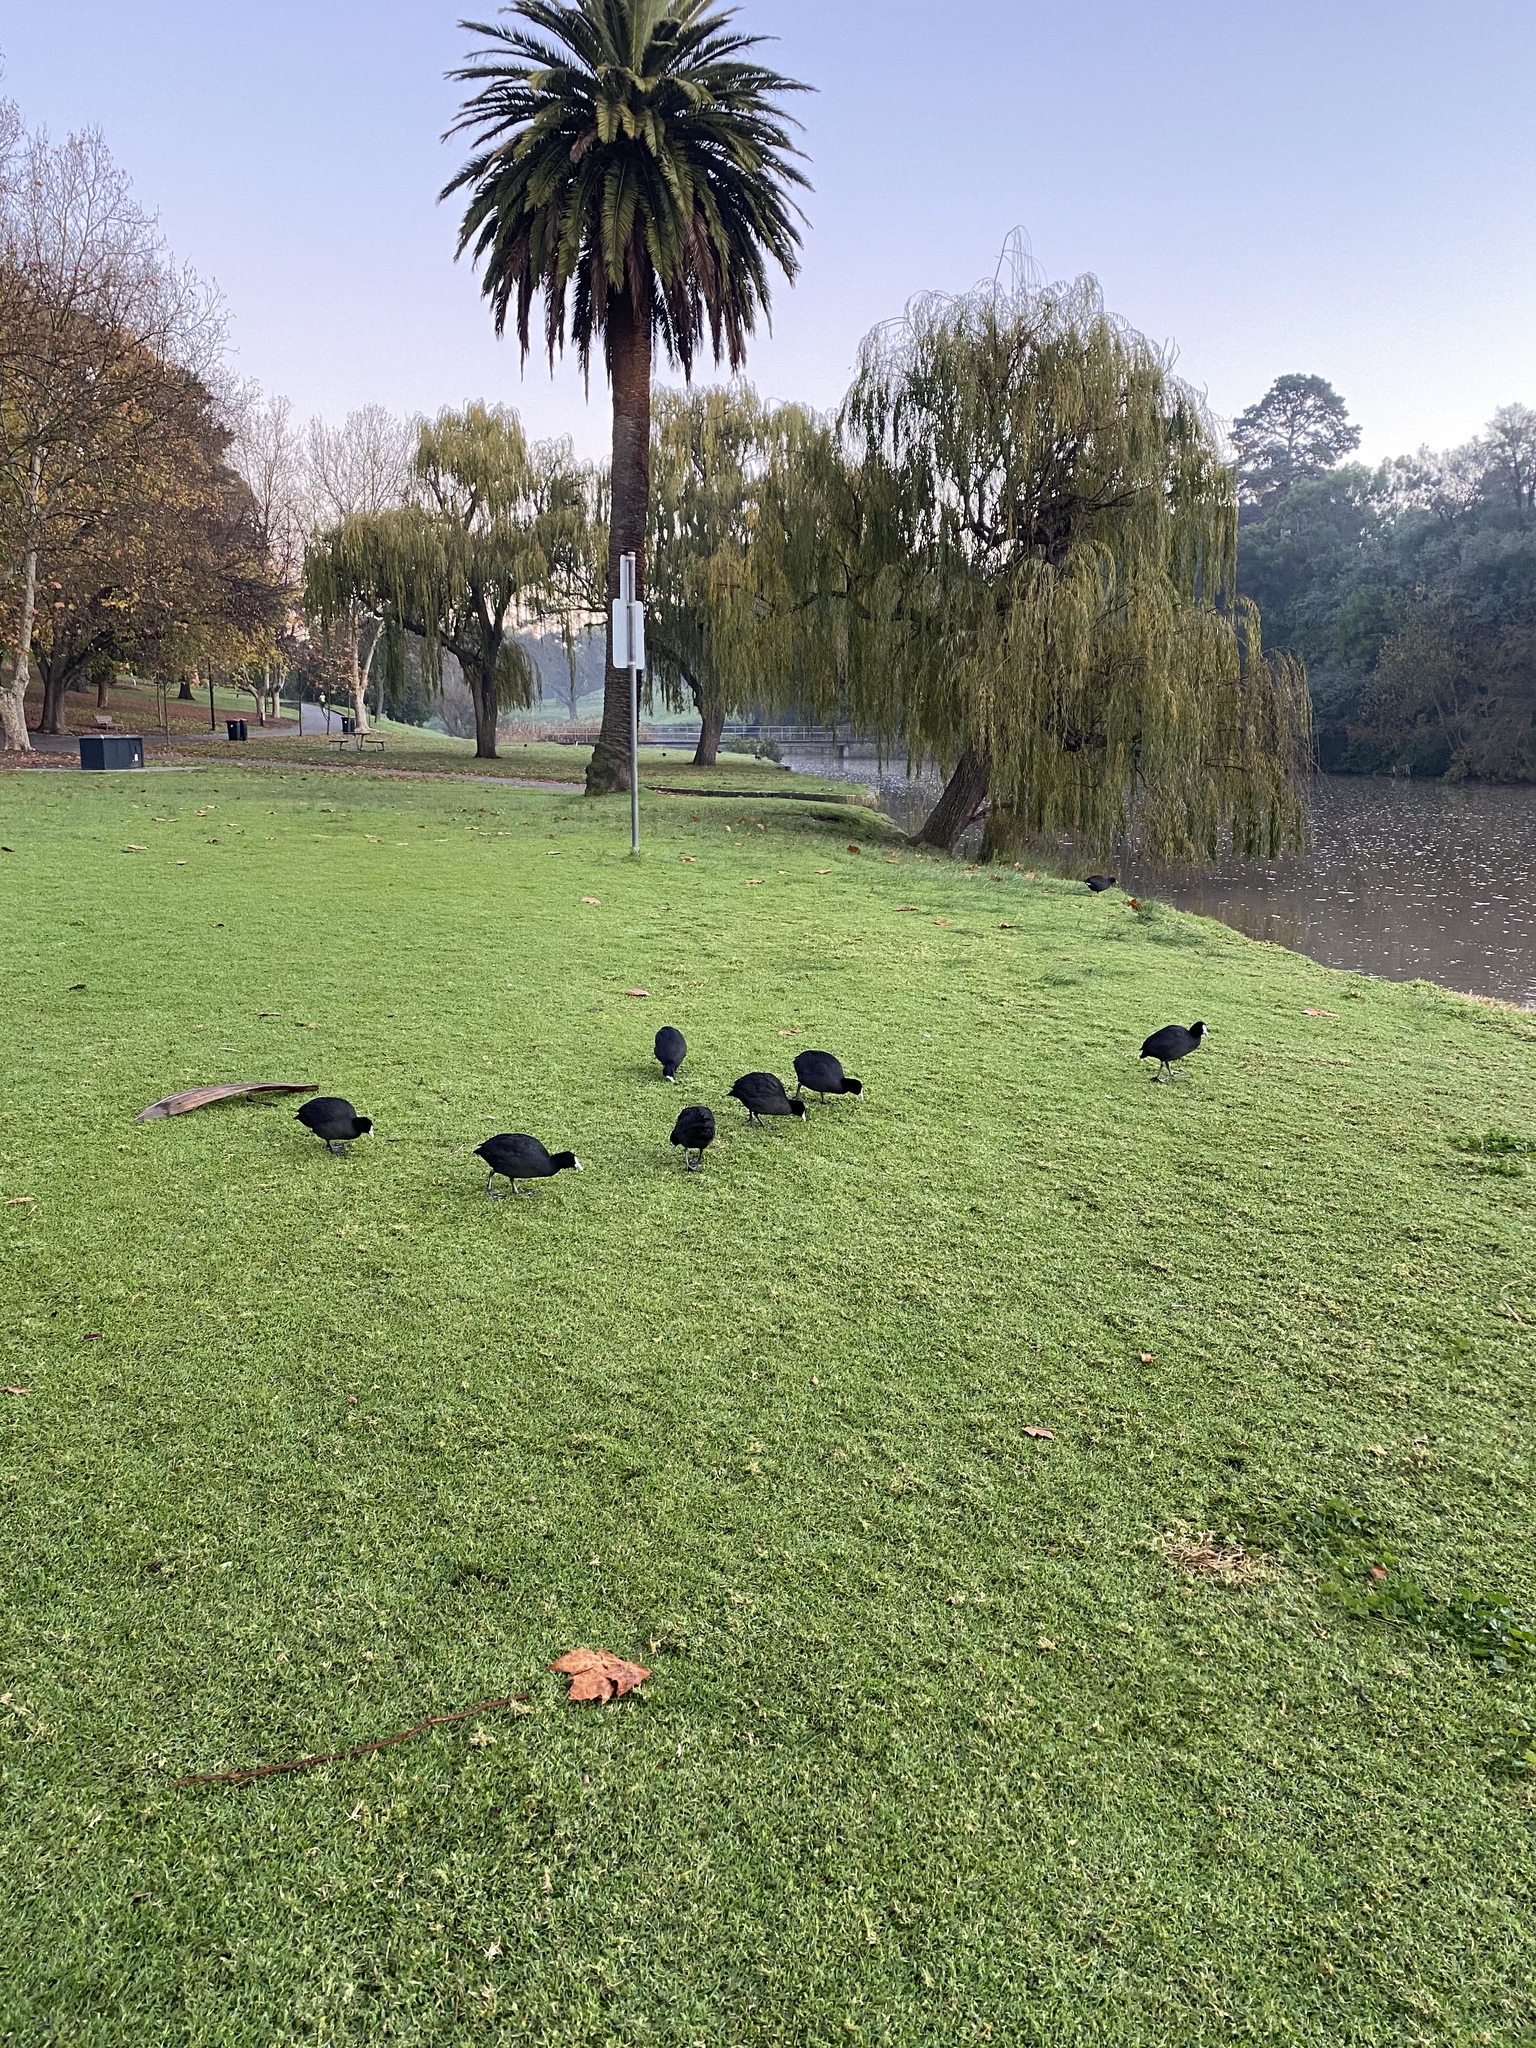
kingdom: Animalia
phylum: Chordata
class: Aves
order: Gruiformes
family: Rallidae
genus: Fulica
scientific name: Fulica atra
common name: Eurasian coot
